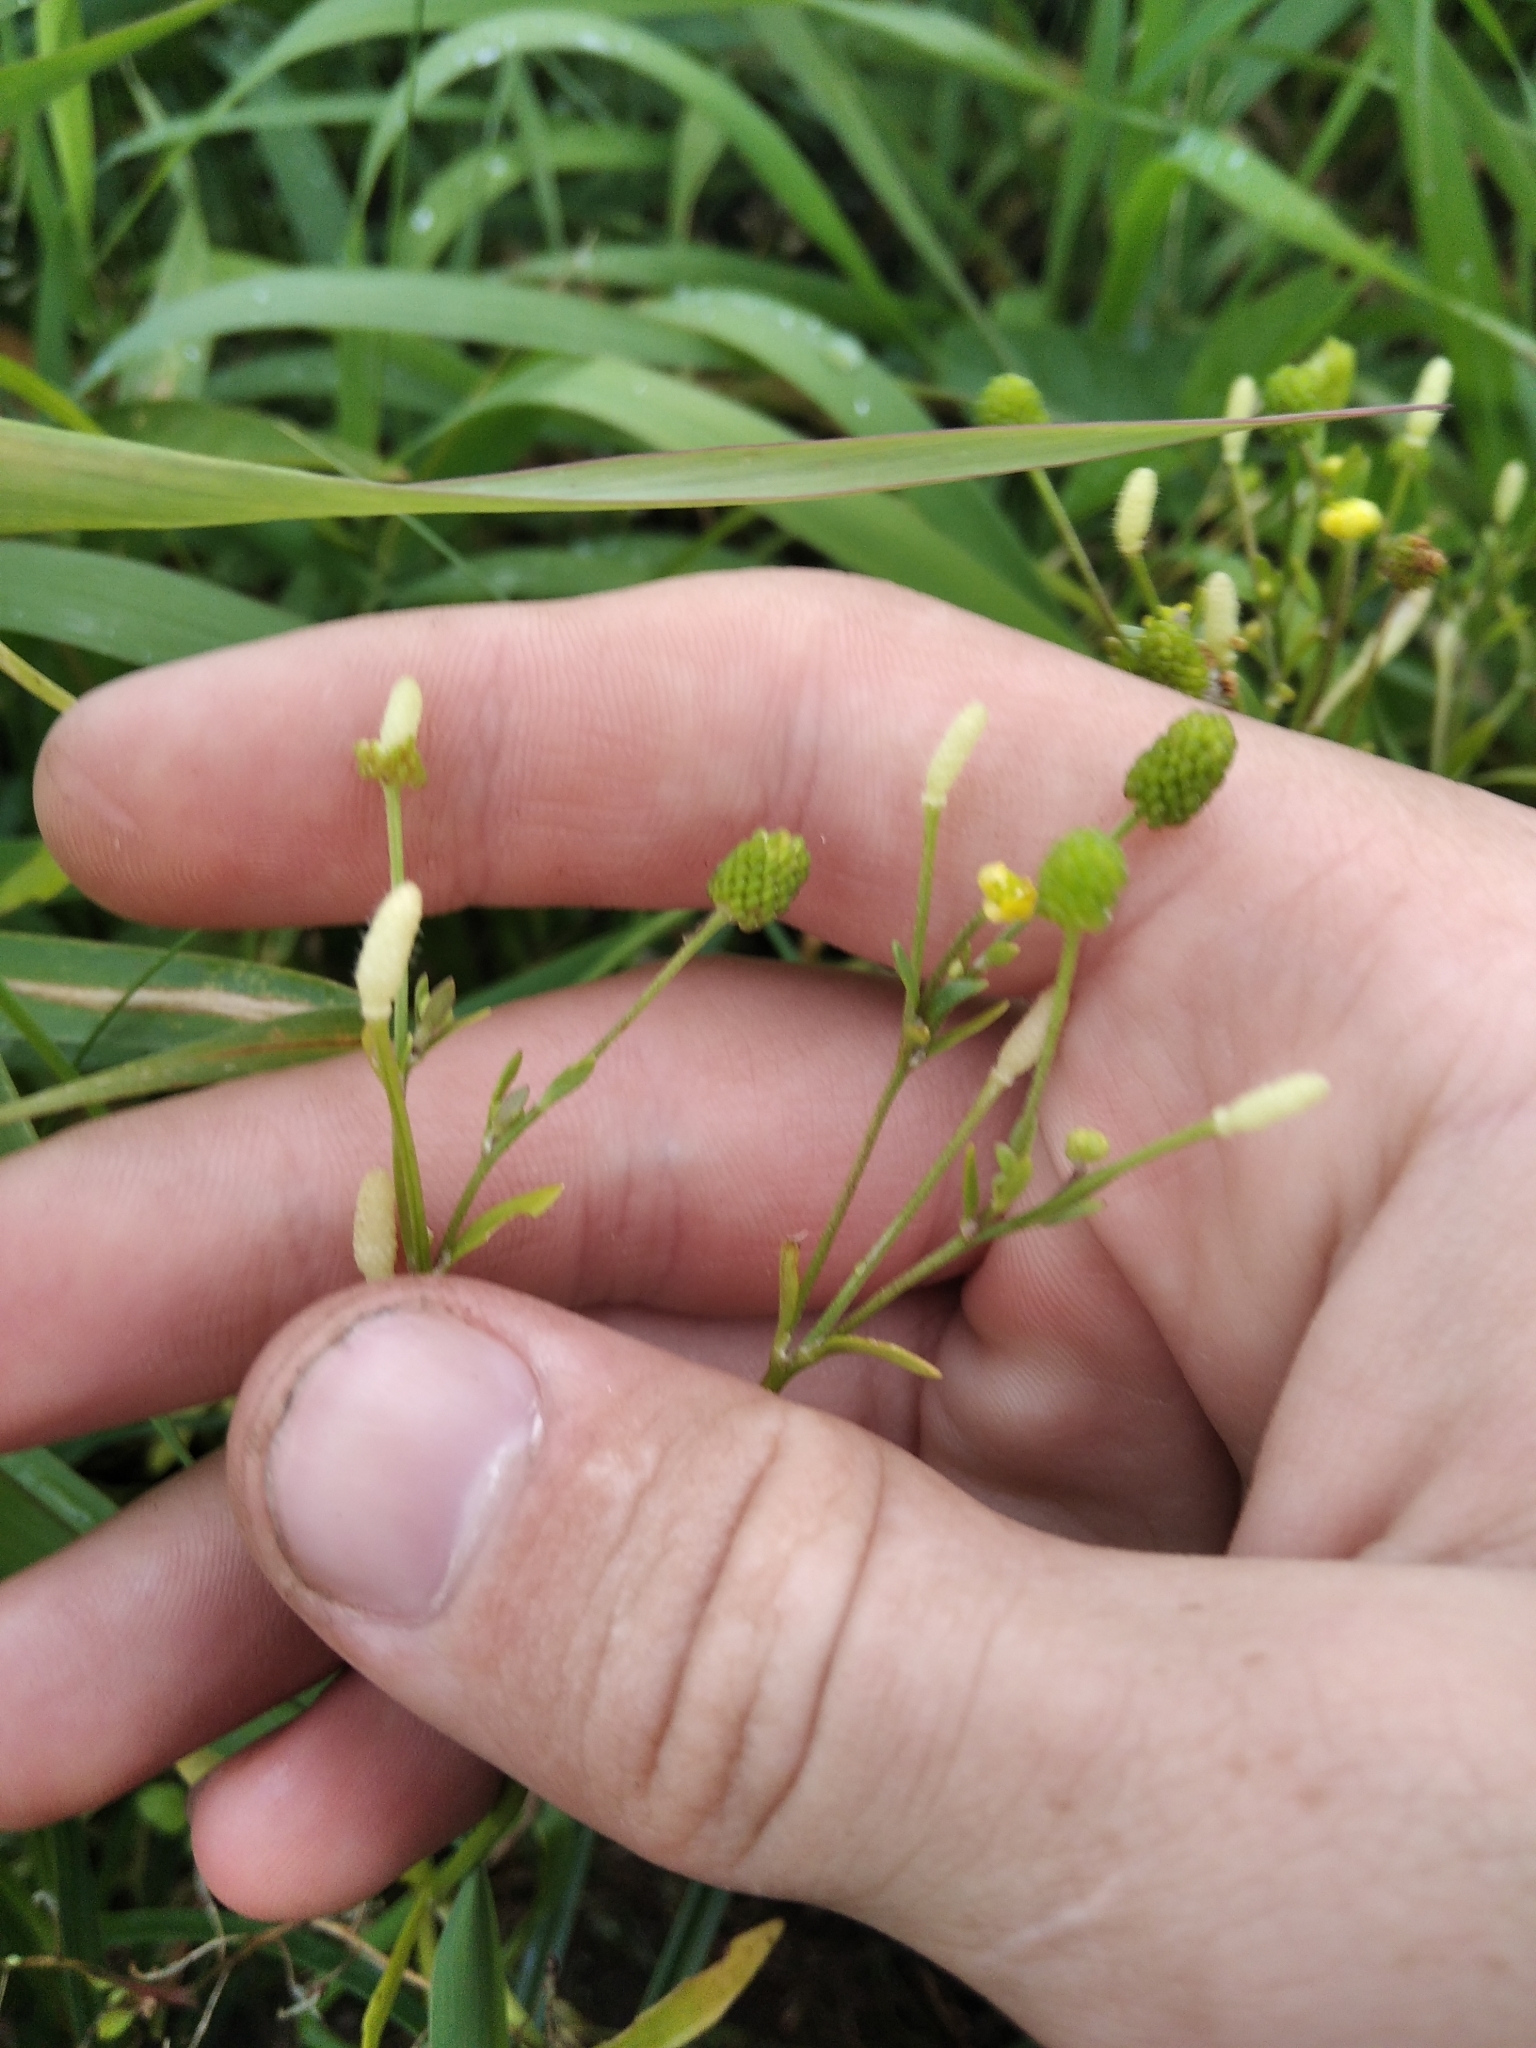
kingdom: Plantae
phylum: Tracheophyta
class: Magnoliopsida
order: Ranunculales
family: Ranunculaceae
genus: Ranunculus
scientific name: Ranunculus sceleratus
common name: Celery-leaved buttercup
